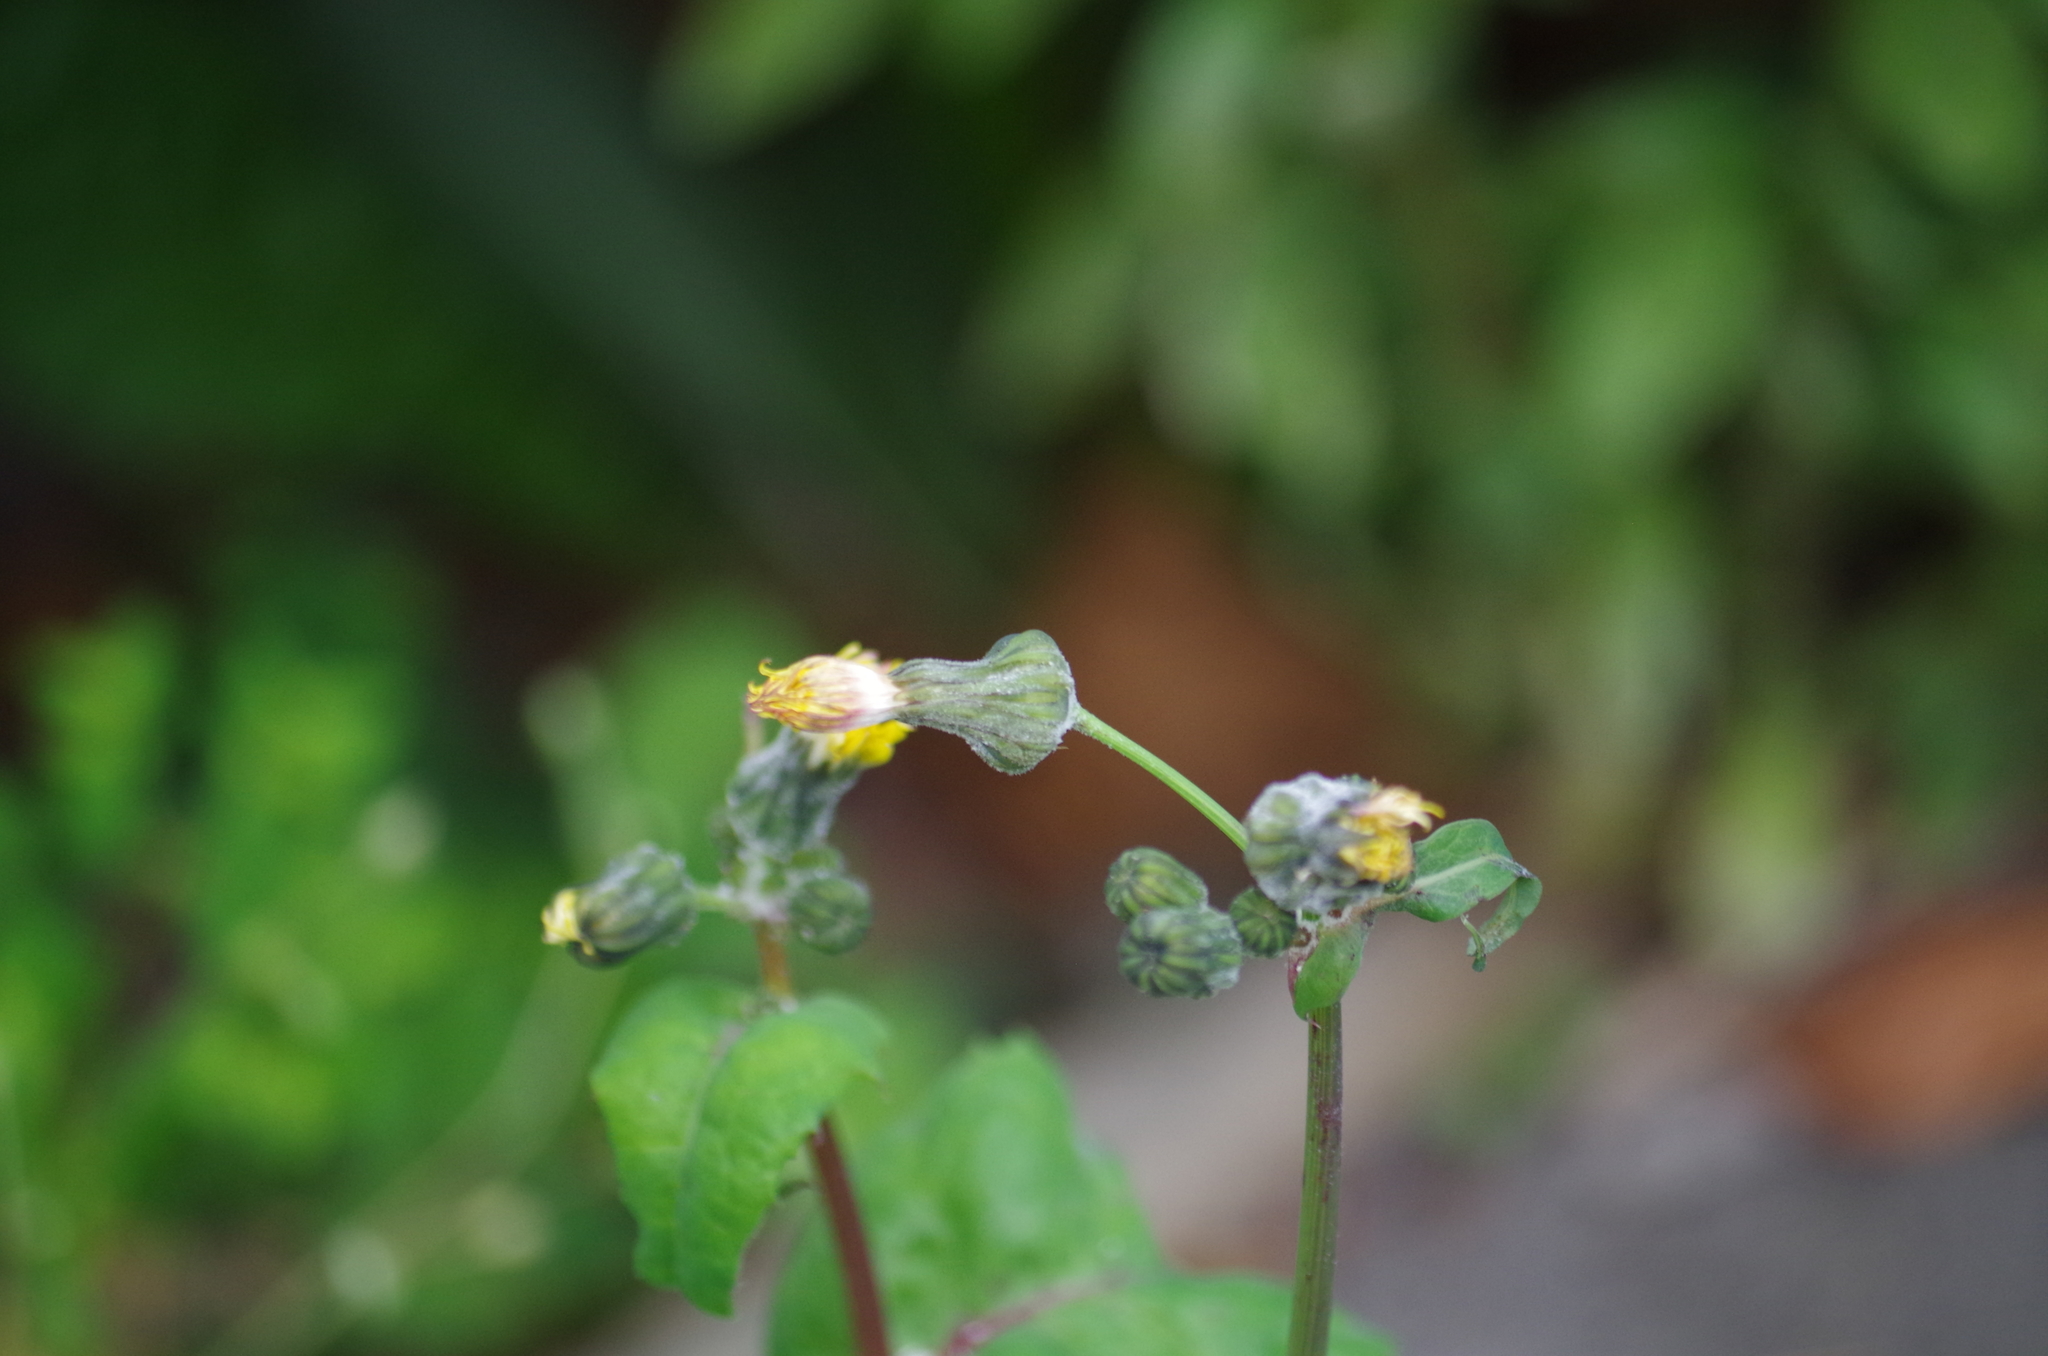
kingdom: Plantae
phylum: Tracheophyta
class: Magnoliopsida
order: Asterales
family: Asteraceae
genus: Sonchus
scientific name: Sonchus oleraceus
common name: Common sowthistle
